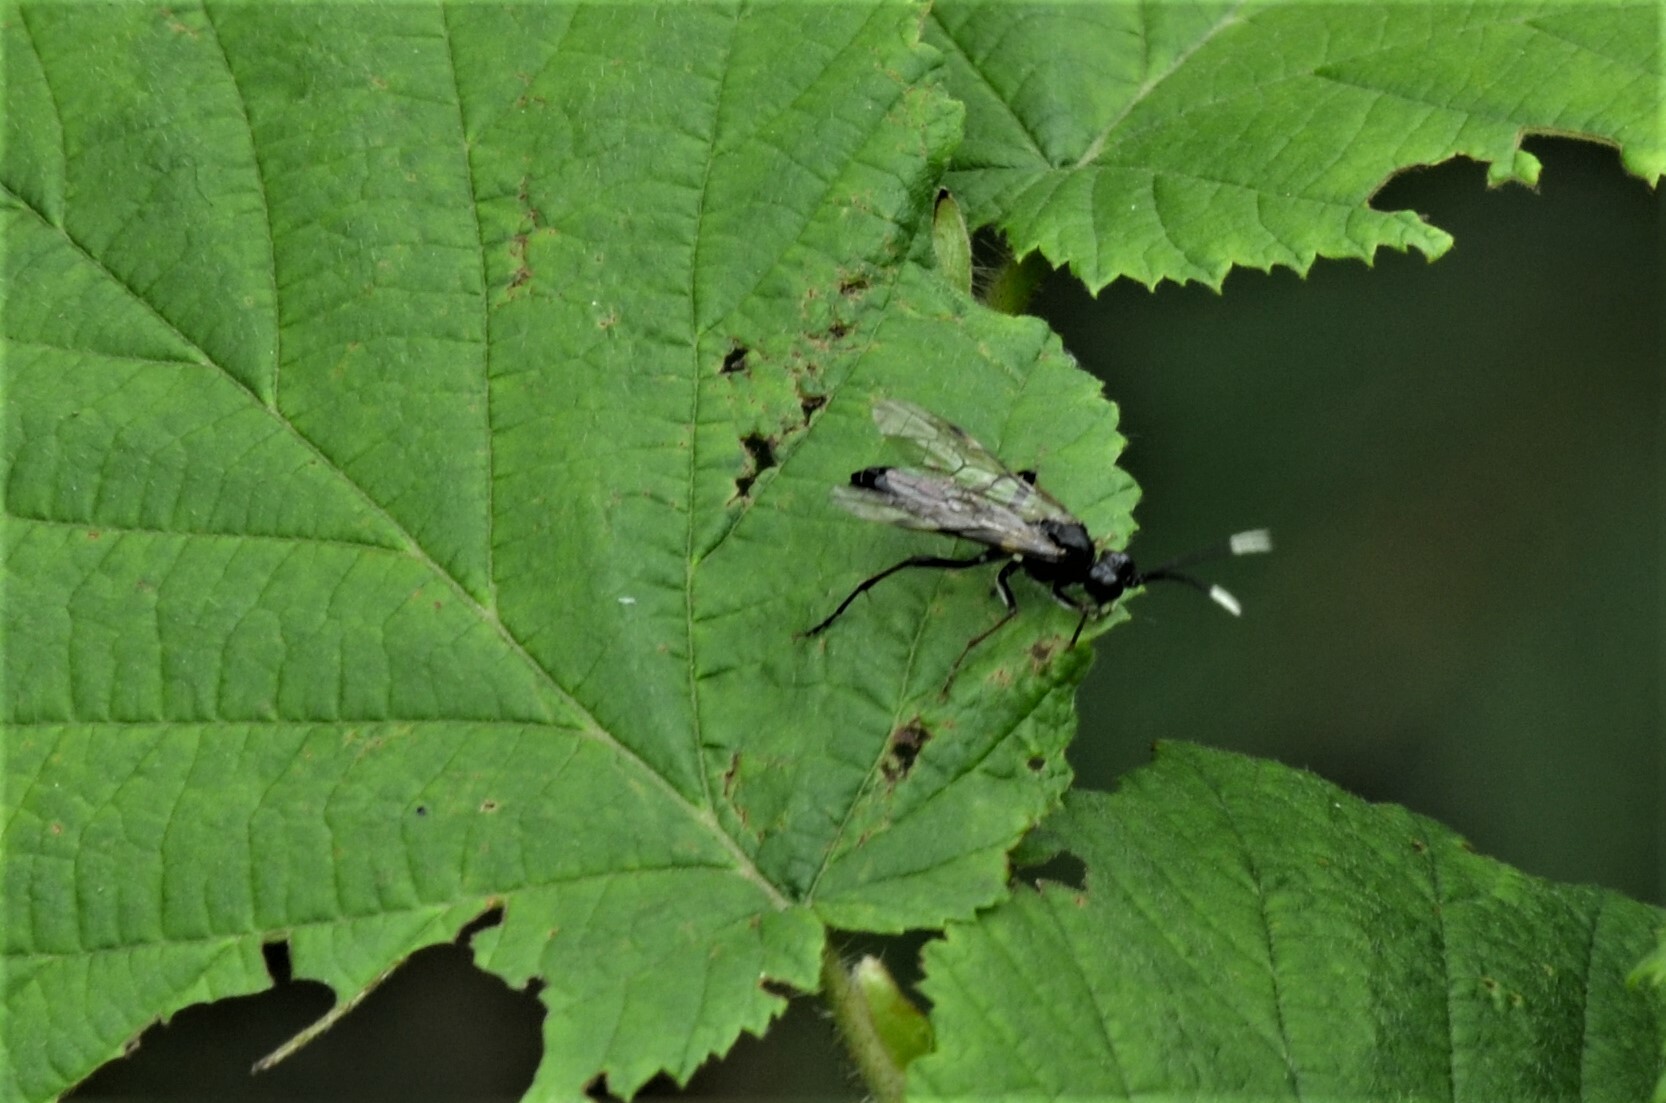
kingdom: Animalia
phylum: Arthropoda
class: Insecta
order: Hymenoptera
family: Tenthredinidae
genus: Tenthredo
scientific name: Tenthredo livida
